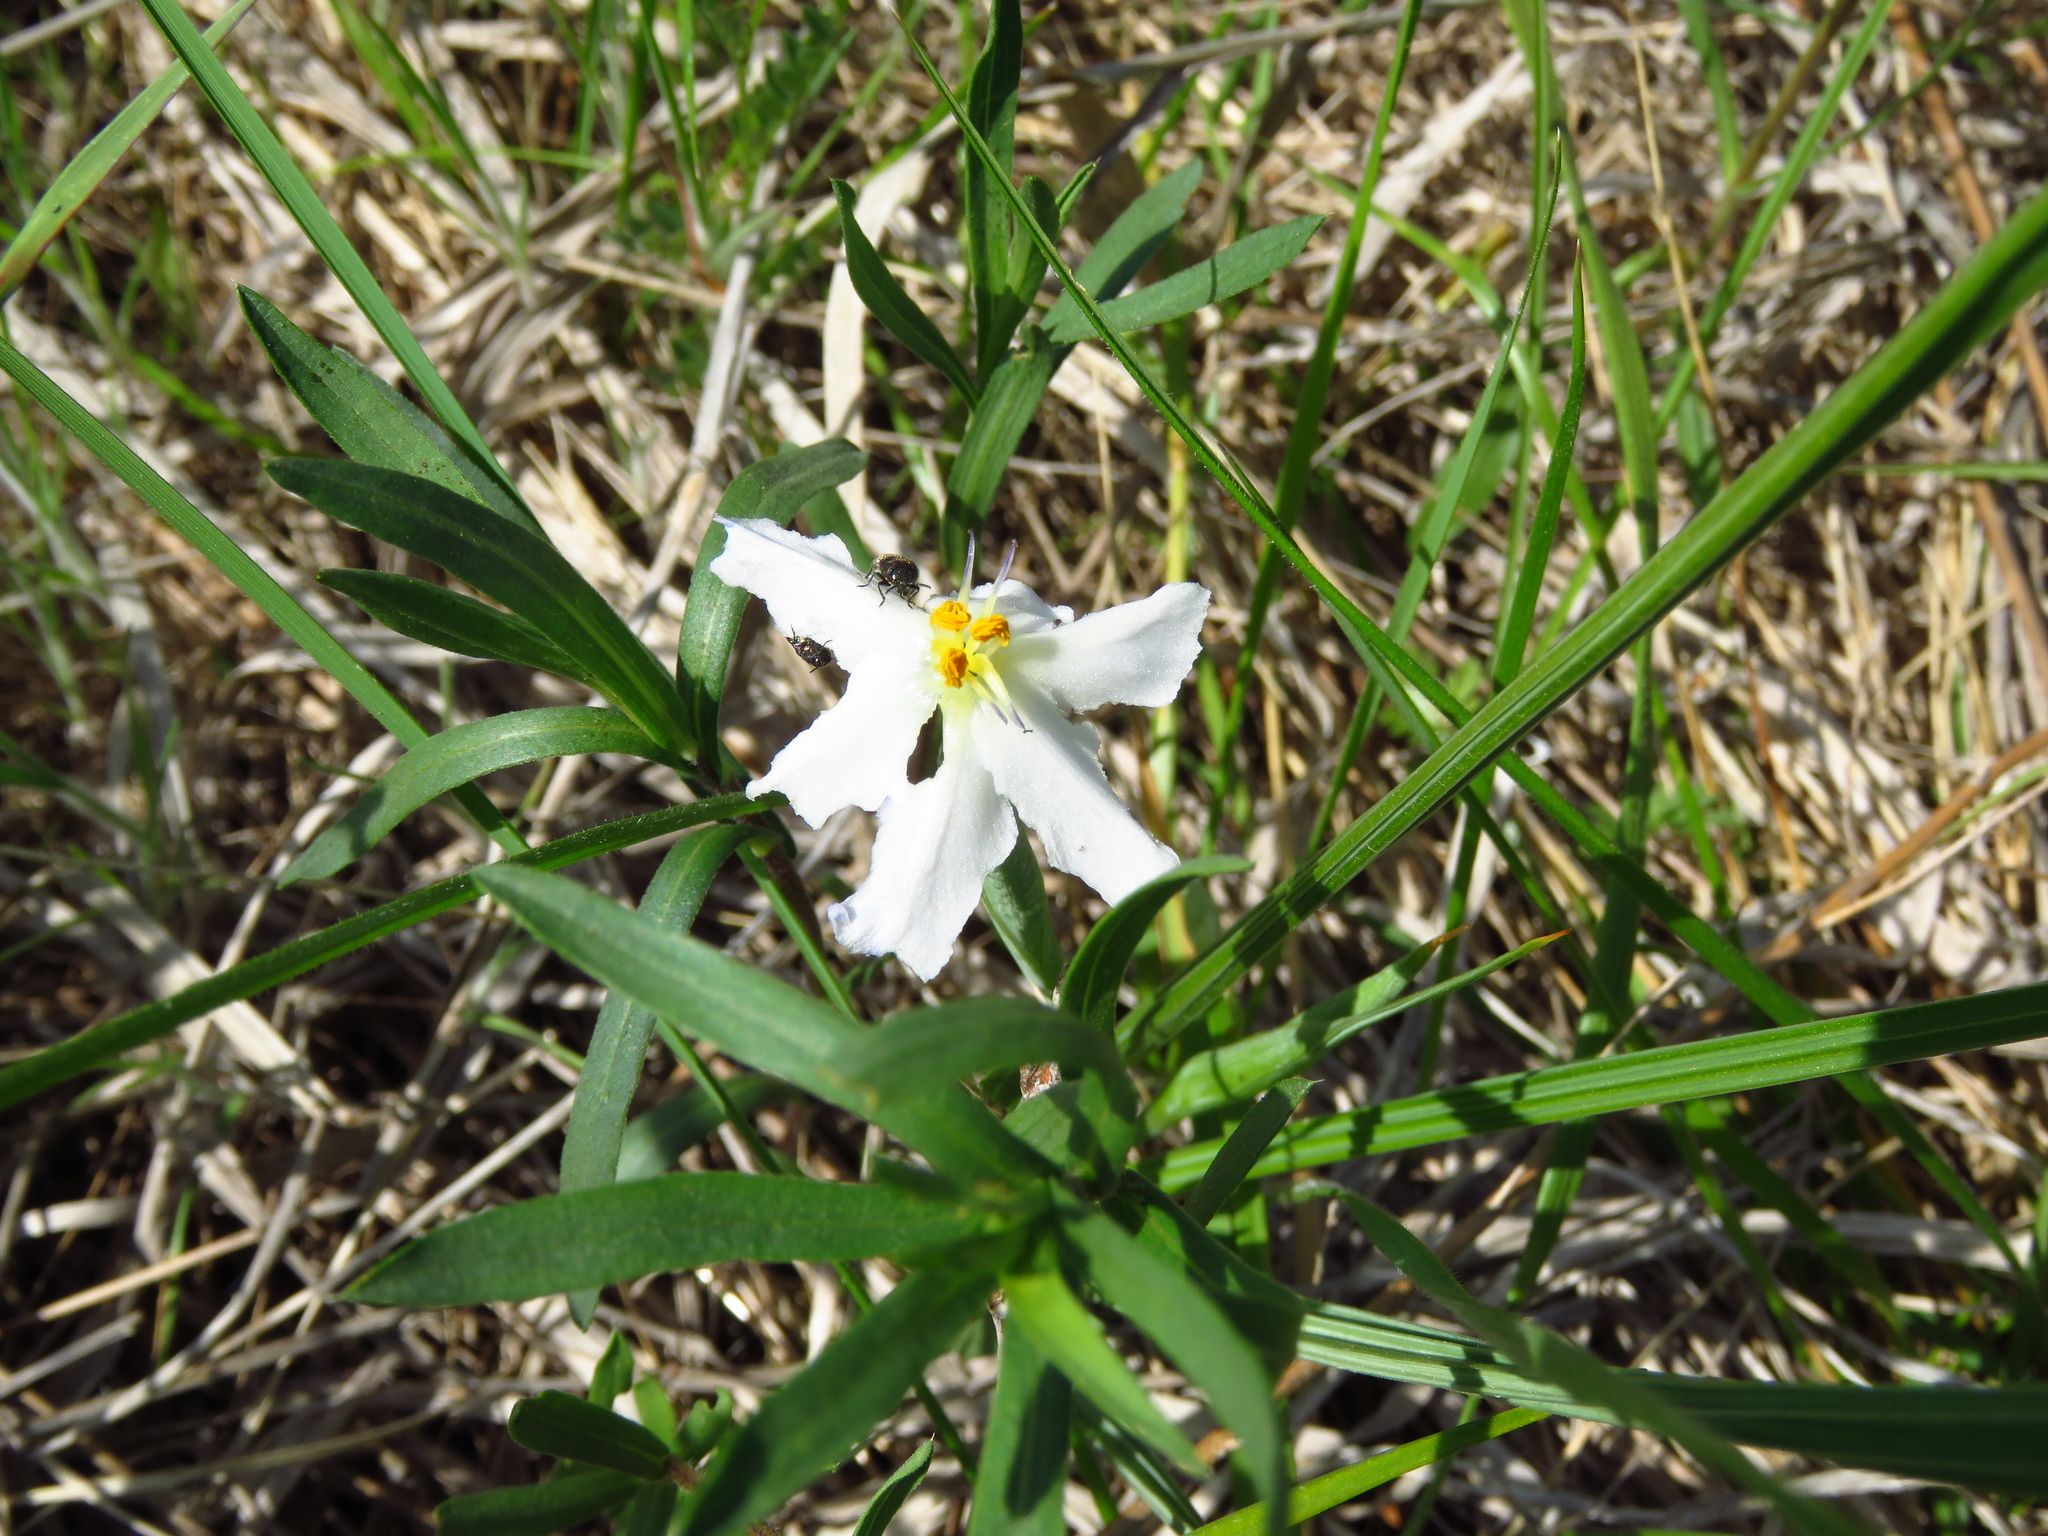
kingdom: Plantae
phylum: Tracheophyta
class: Liliopsida
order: Asparagales
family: Iridaceae
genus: Nemastylis
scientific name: Nemastylis geminiflora
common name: Prairie celestial
